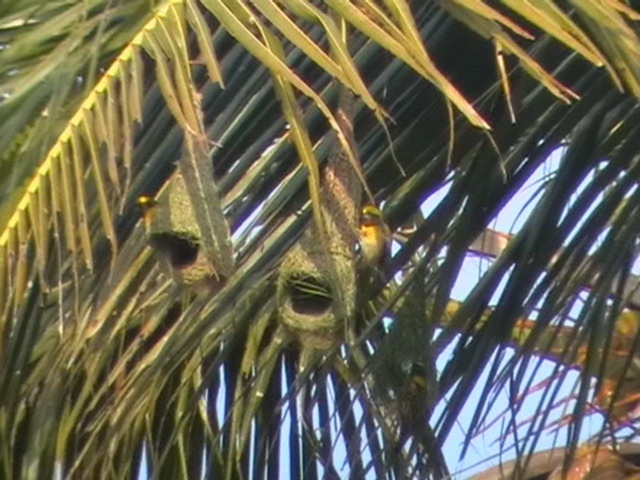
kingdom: Animalia
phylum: Chordata
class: Aves
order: Passeriformes
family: Ploceidae
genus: Ploceus
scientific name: Ploceus philippinus
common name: Baya weaver
